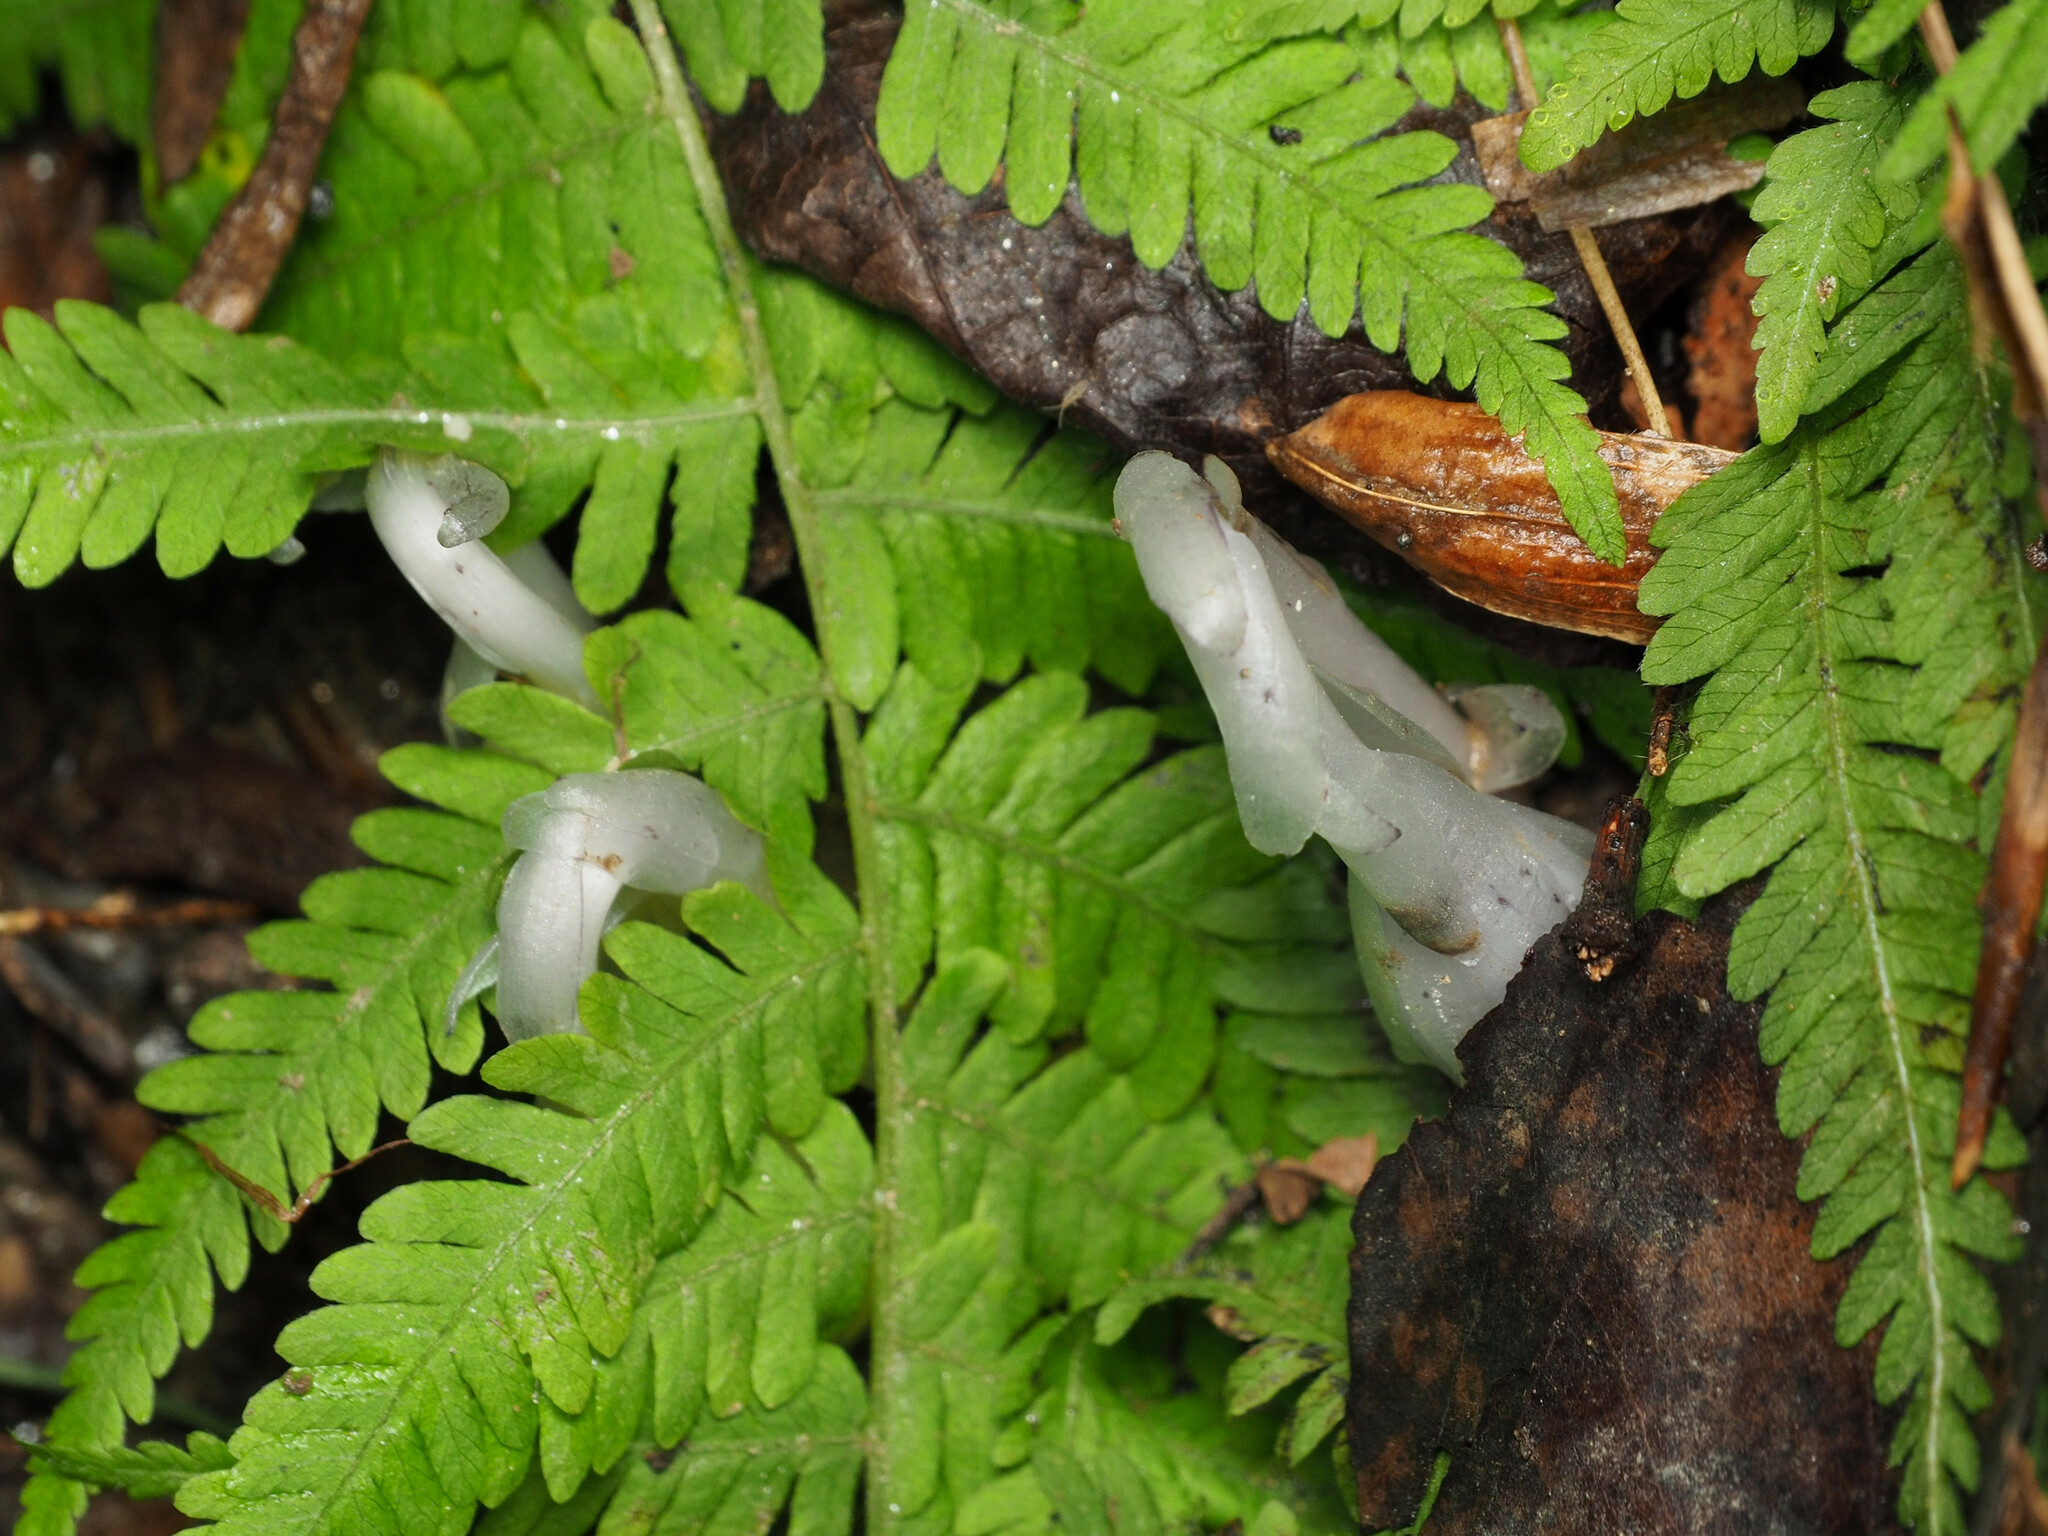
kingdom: Plantae
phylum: Tracheophyta
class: Magnoliopsida
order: Ericales
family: Ericaceae
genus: Monotropa
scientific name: Monotropa uniflora
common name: Convulsion root
